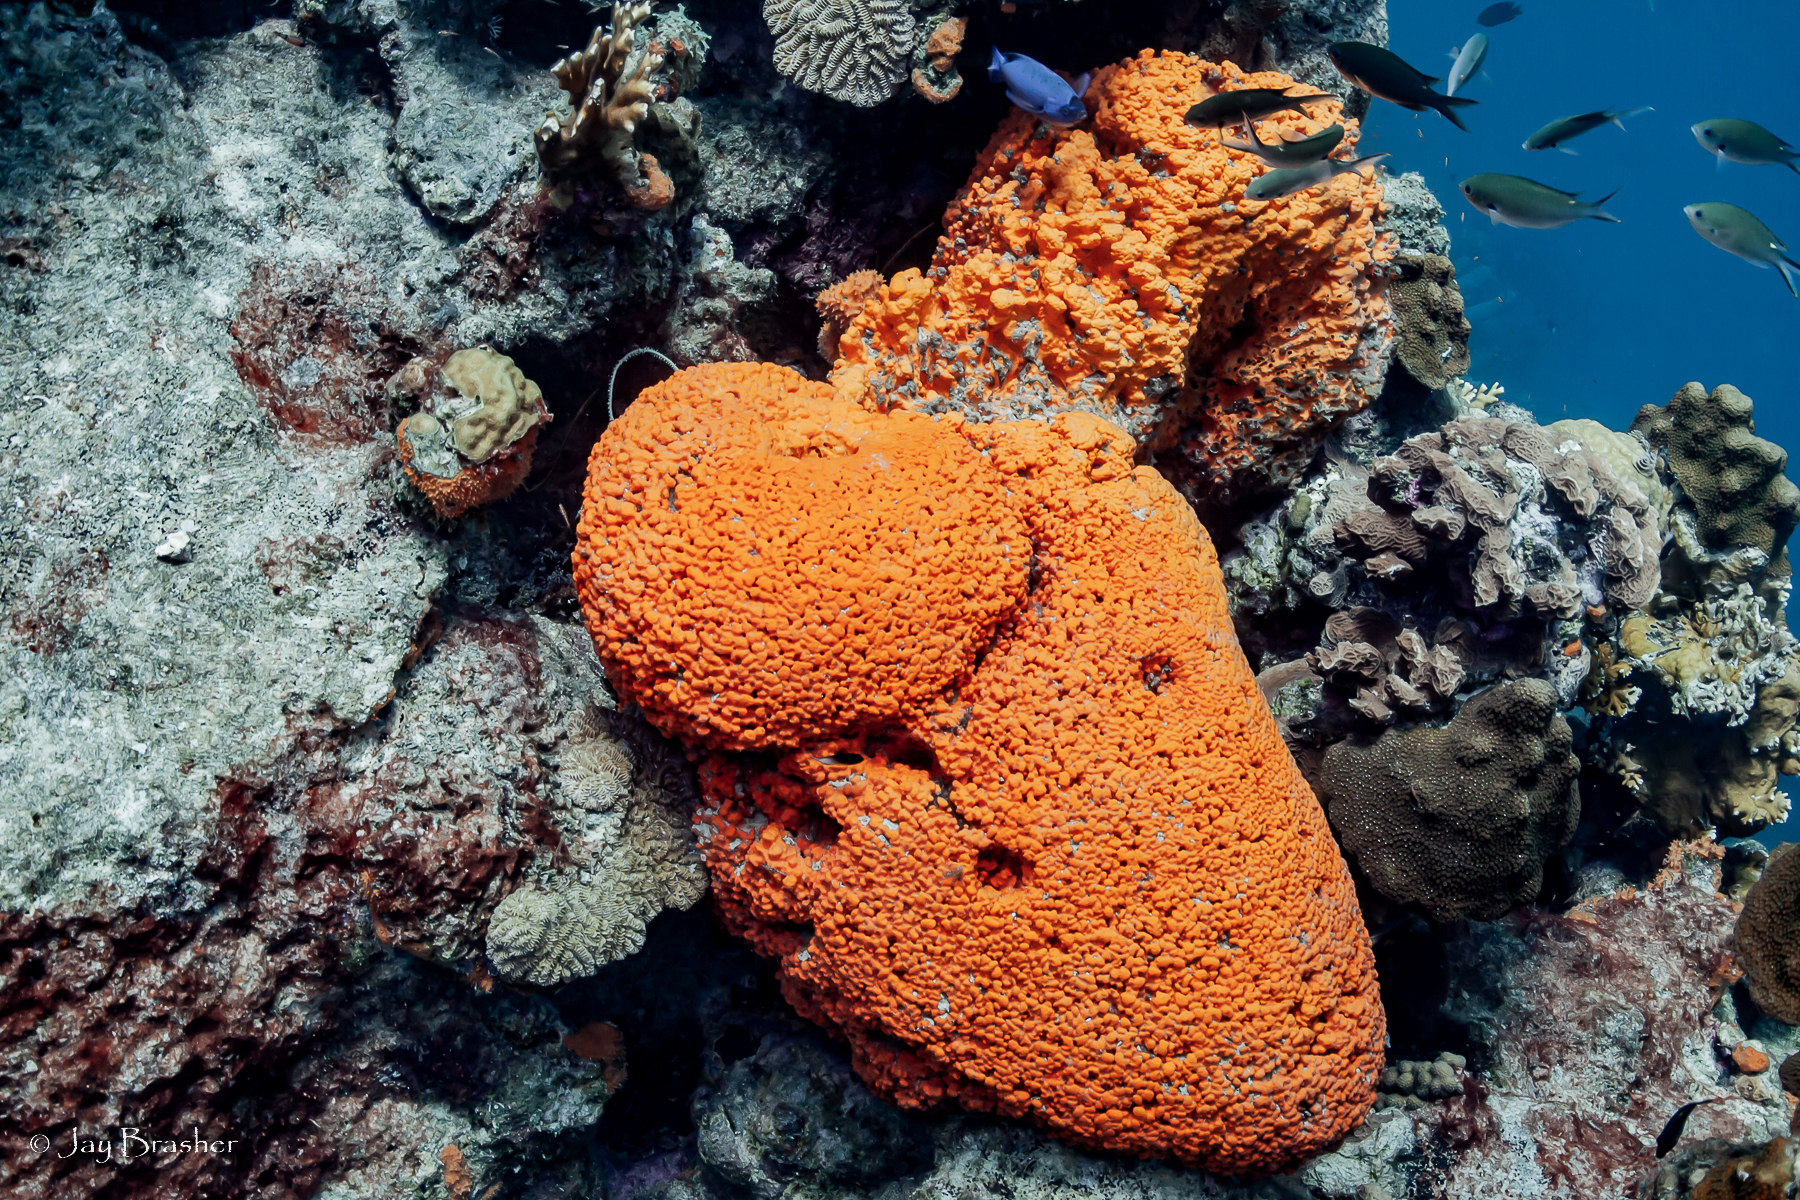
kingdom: Animalia
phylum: Porifera
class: Demospongiae
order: Agelasida
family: Agelasidae
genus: Agelas
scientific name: Agelas clathrodes
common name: Orange elephant ear sponge
